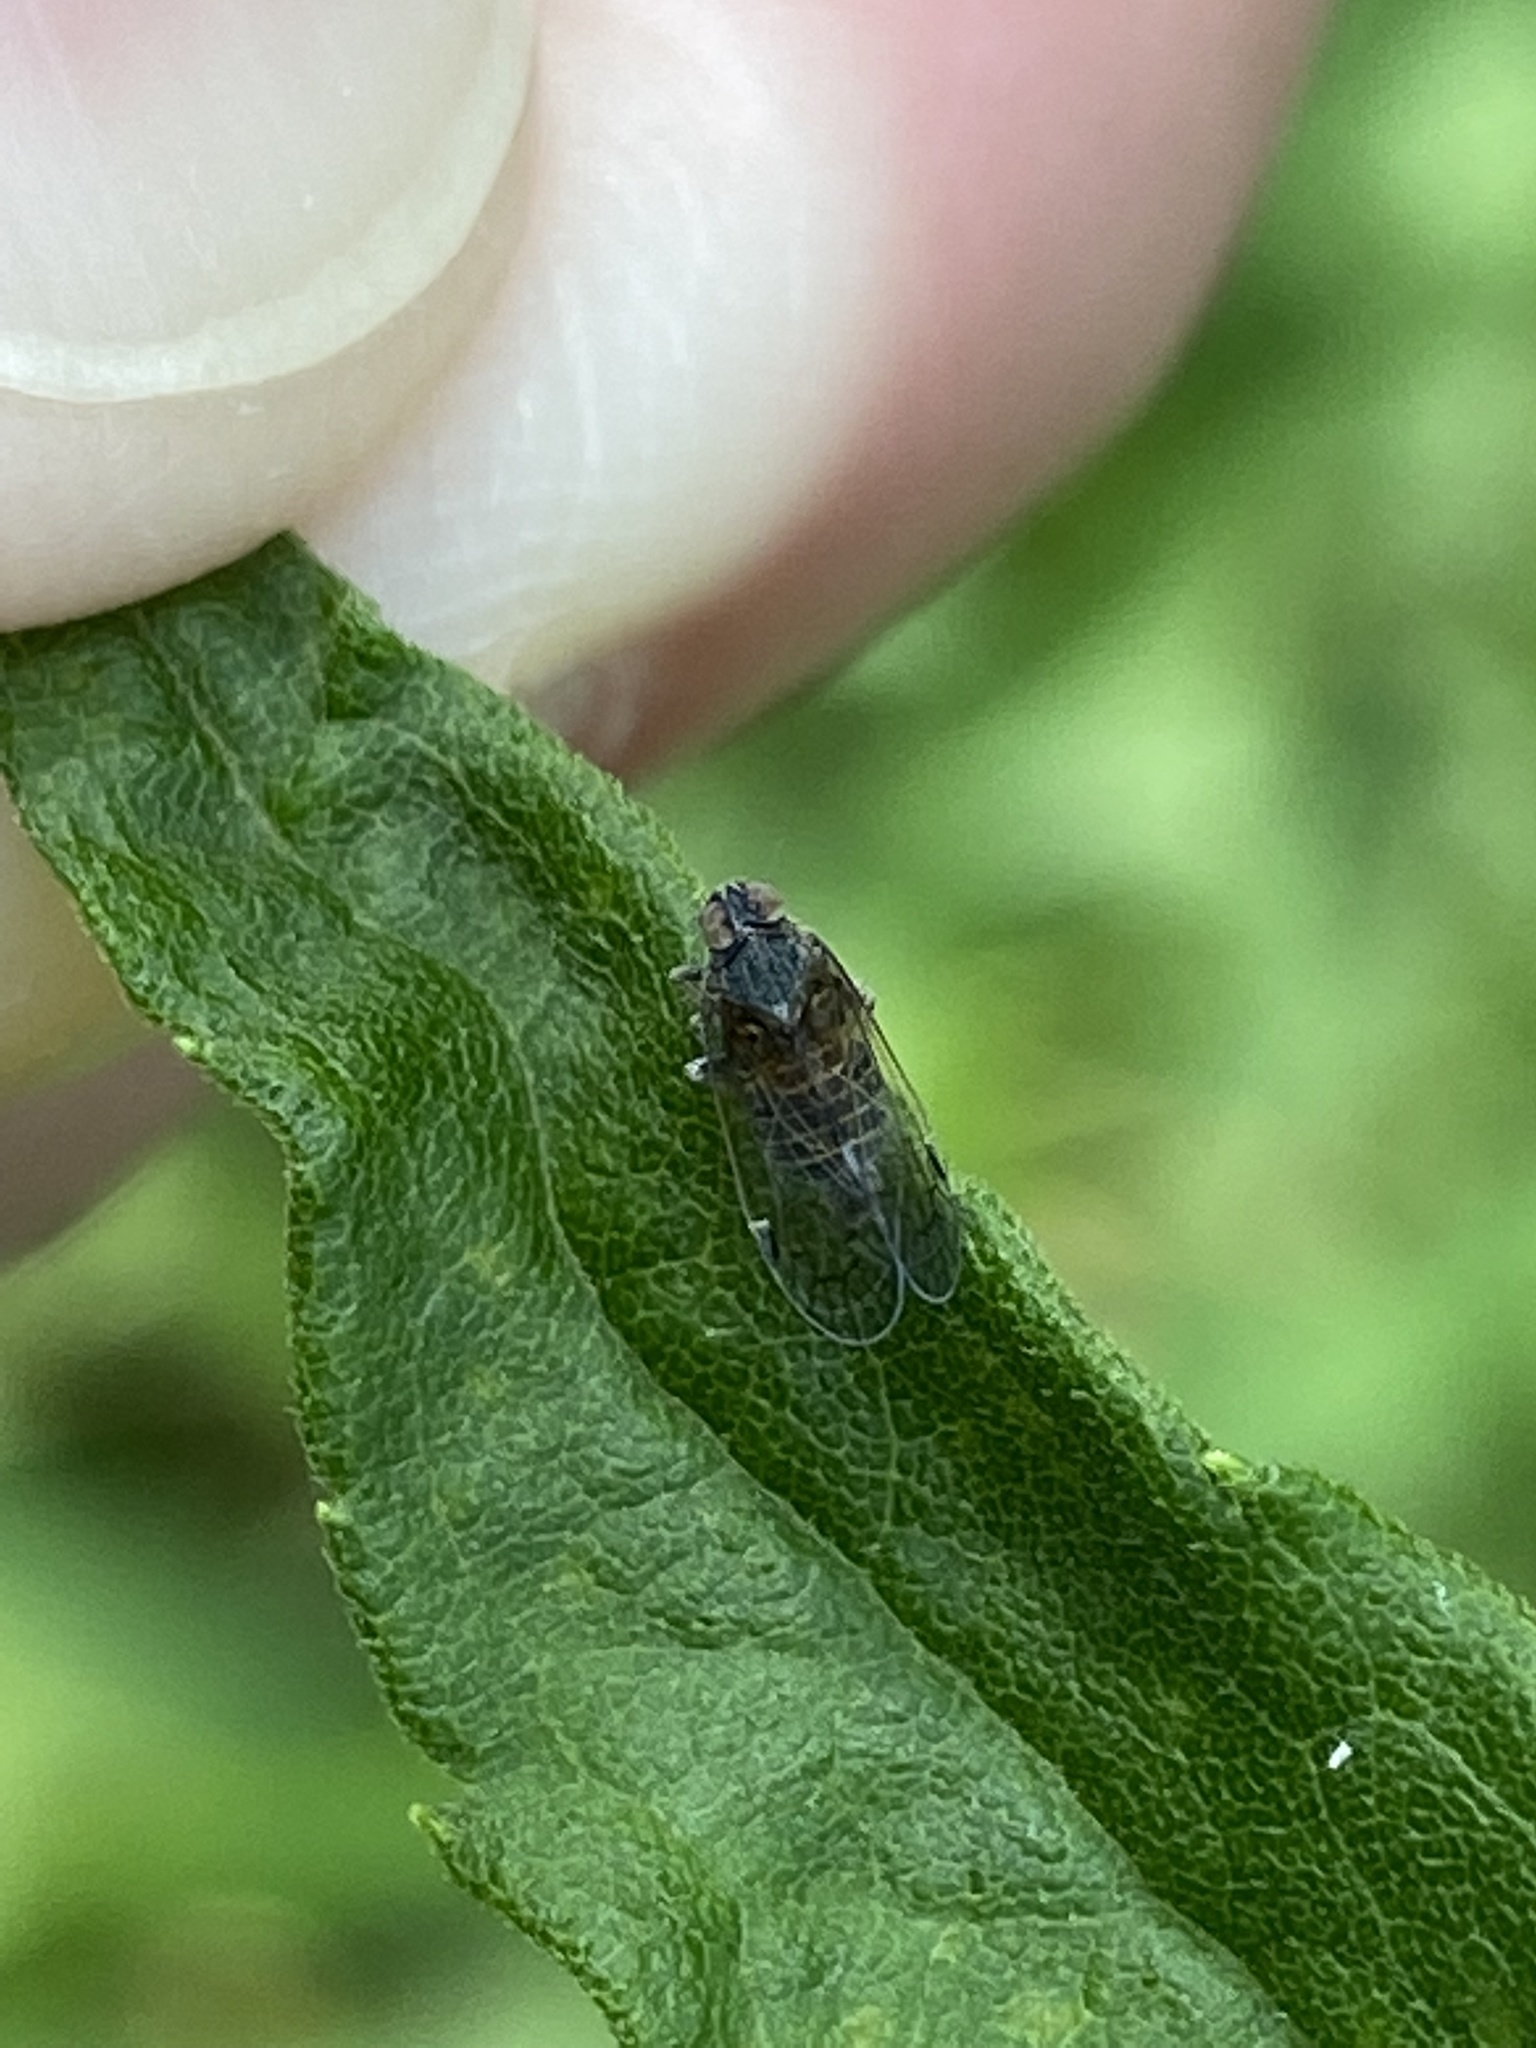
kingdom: Animalia
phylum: Arthropoda
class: Insecta
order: Hemiptera
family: Cixiidae
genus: Melanoliarus
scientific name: Melanoliarus humilis
